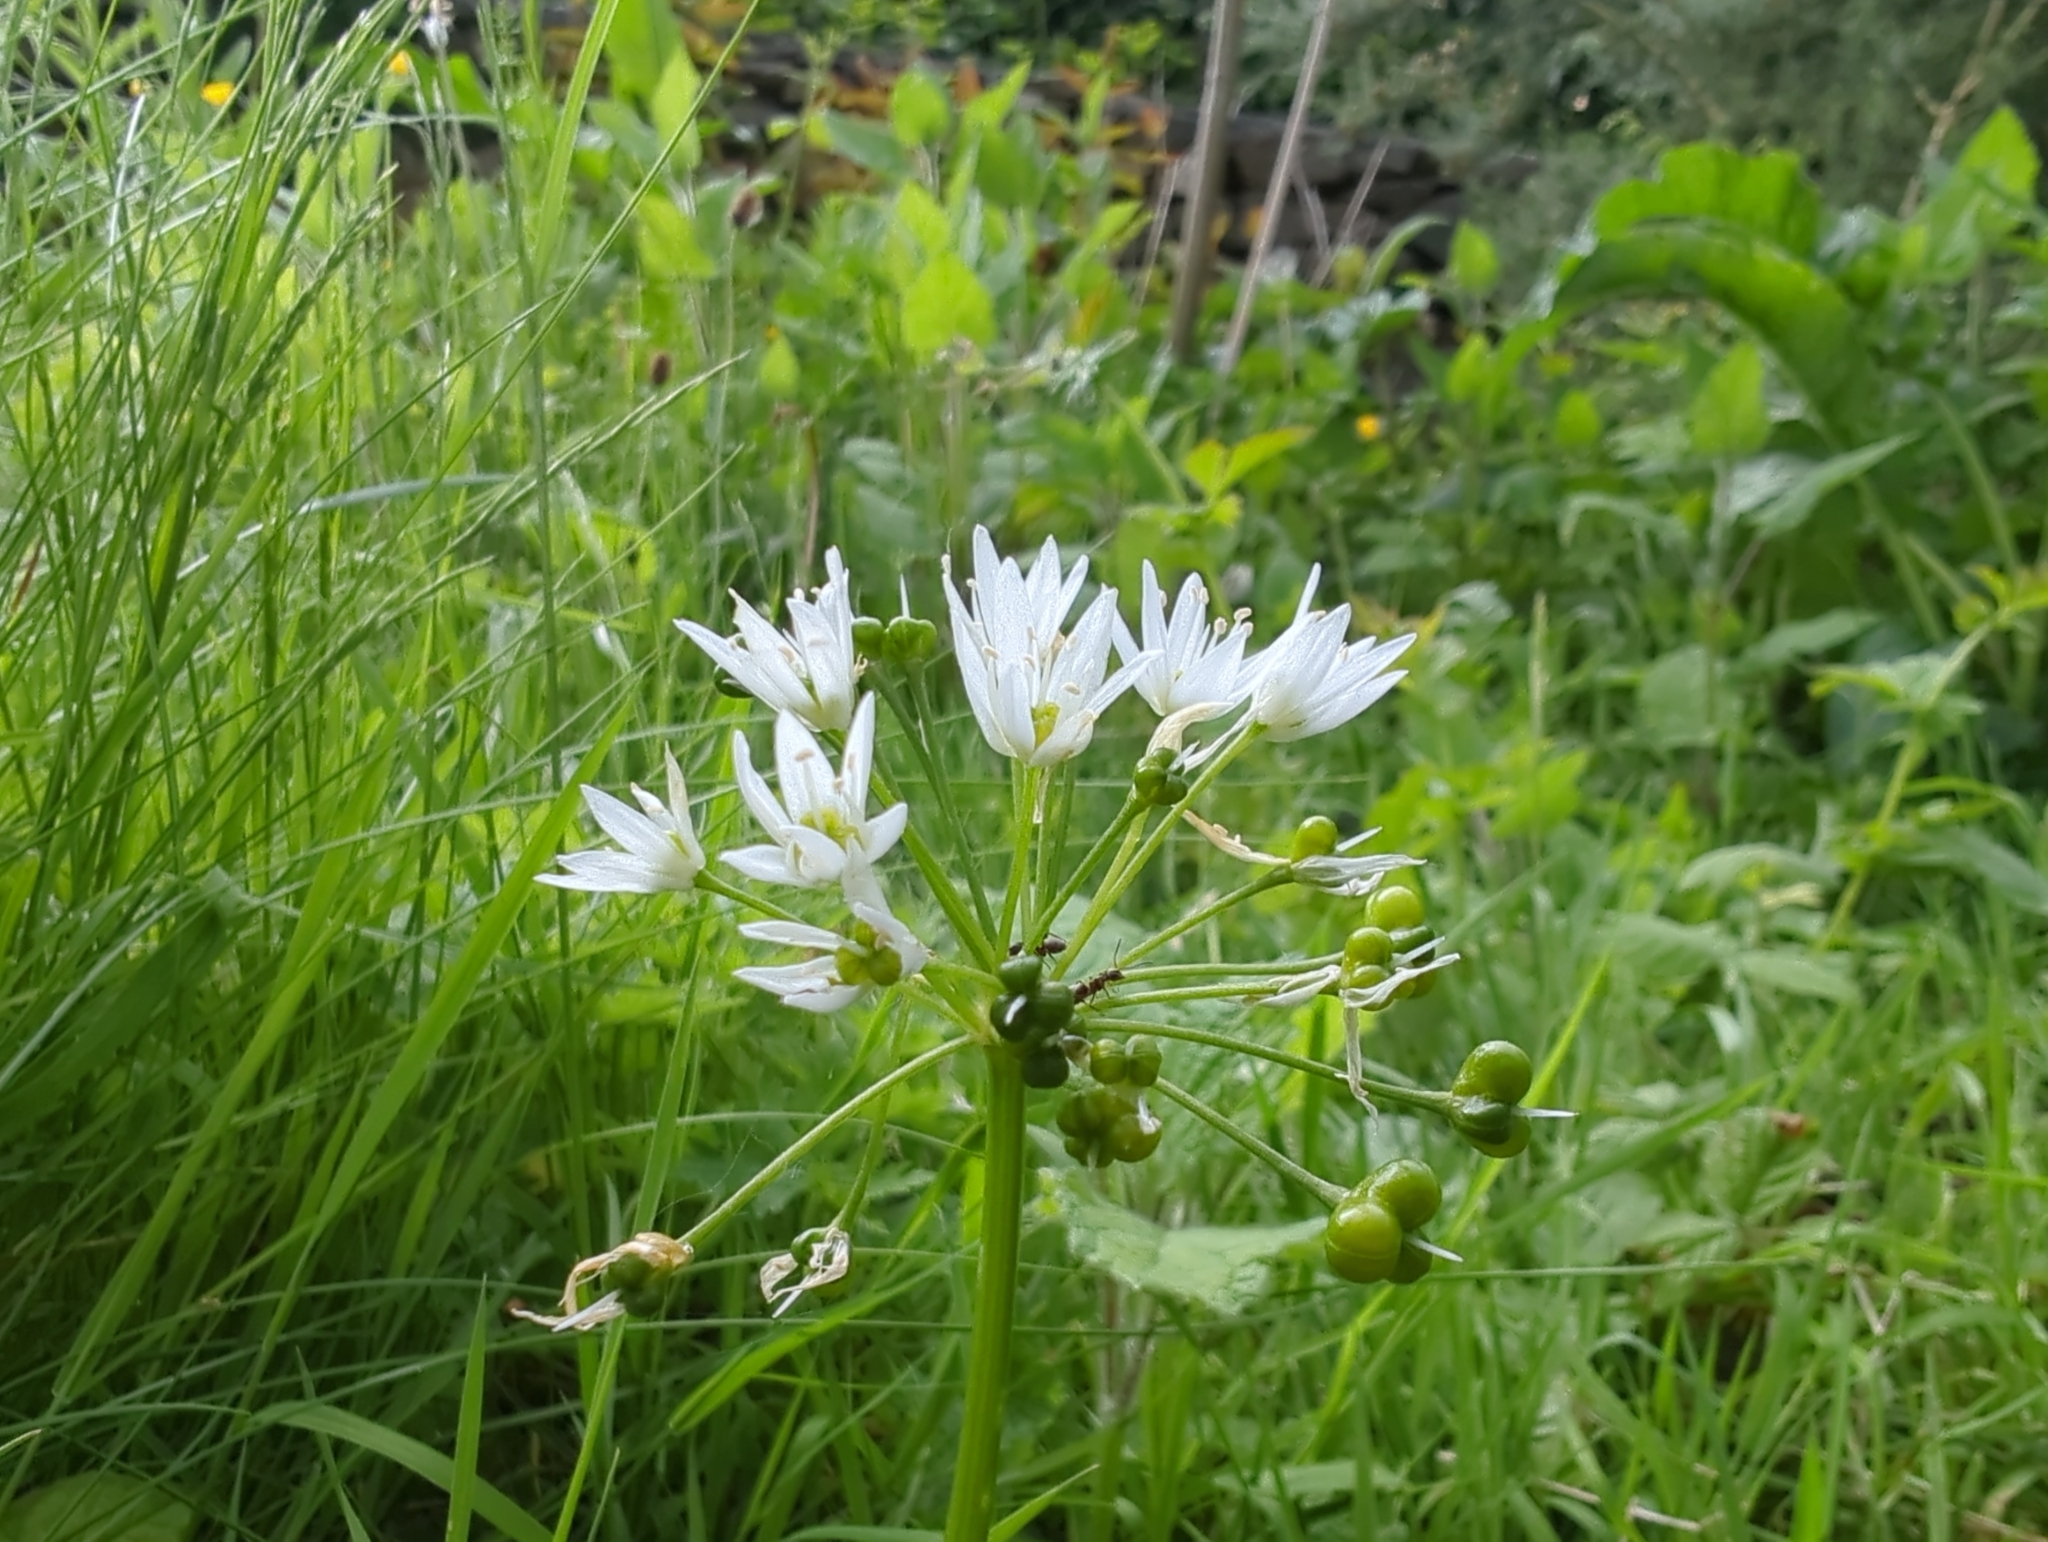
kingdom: Plantae
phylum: Tracheophyta
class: Liliopsida
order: Asparagales
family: Amaryllidaceae
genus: Allium
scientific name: Allium ursinum
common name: Ramsons
